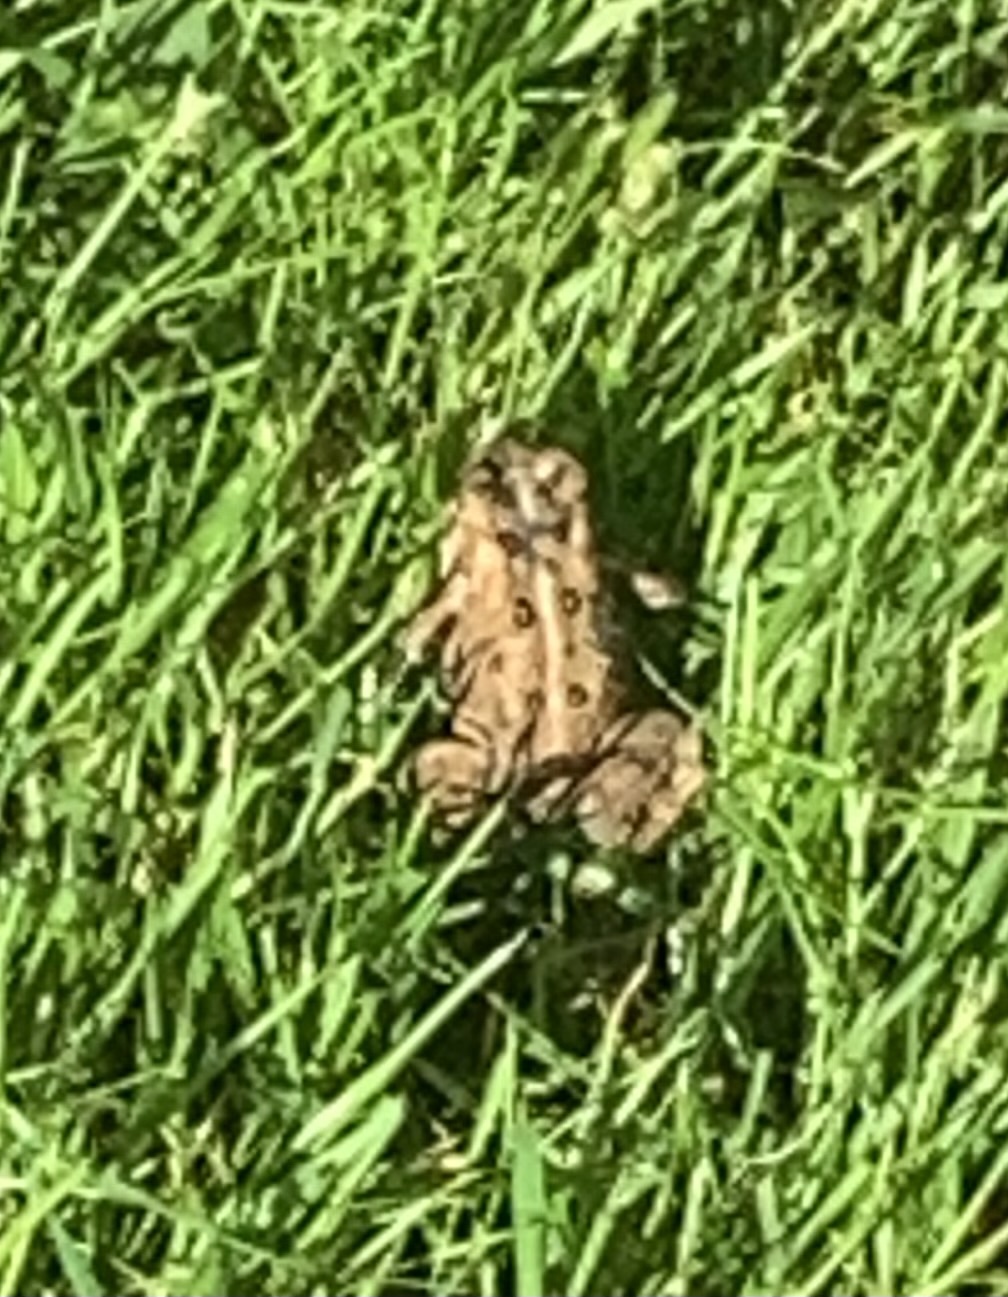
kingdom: Animalia
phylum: Chordata
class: Amphibia
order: Anura
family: Bufonidae
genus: Anaxyrus
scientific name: Anaxyrus americanus
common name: American toad
